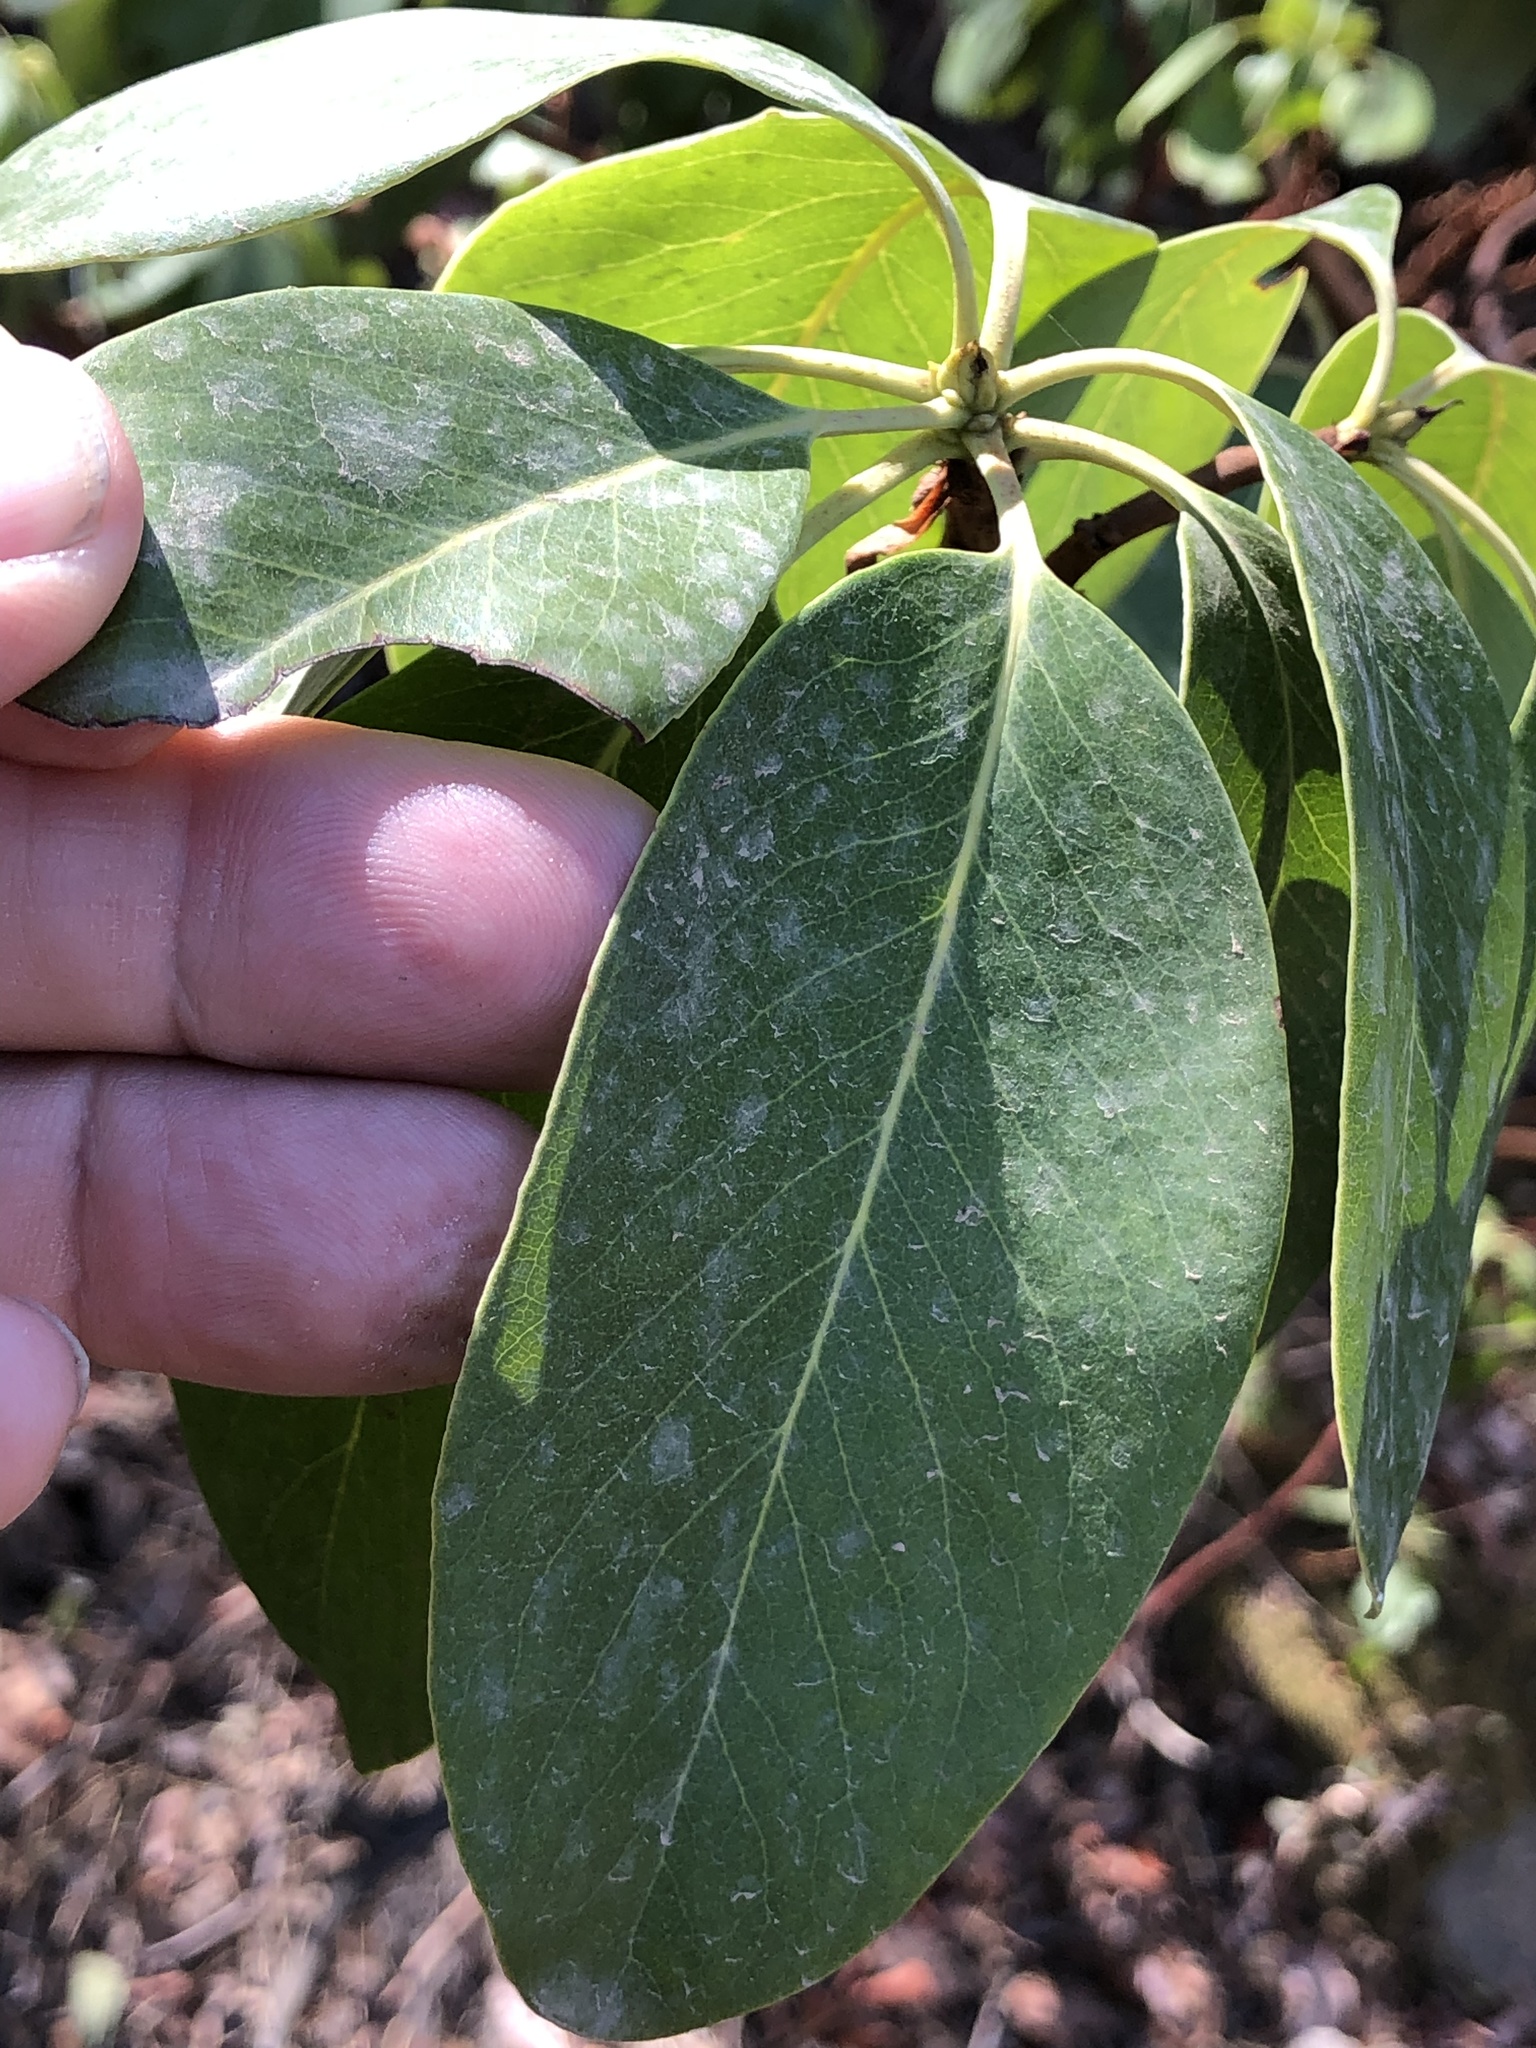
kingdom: Plantae
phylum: Tracheophyta
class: Magnoliopsida
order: Ericales
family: Ericaceae
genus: Arbutus
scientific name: Arbutus menziesii
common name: Pacific madrone
